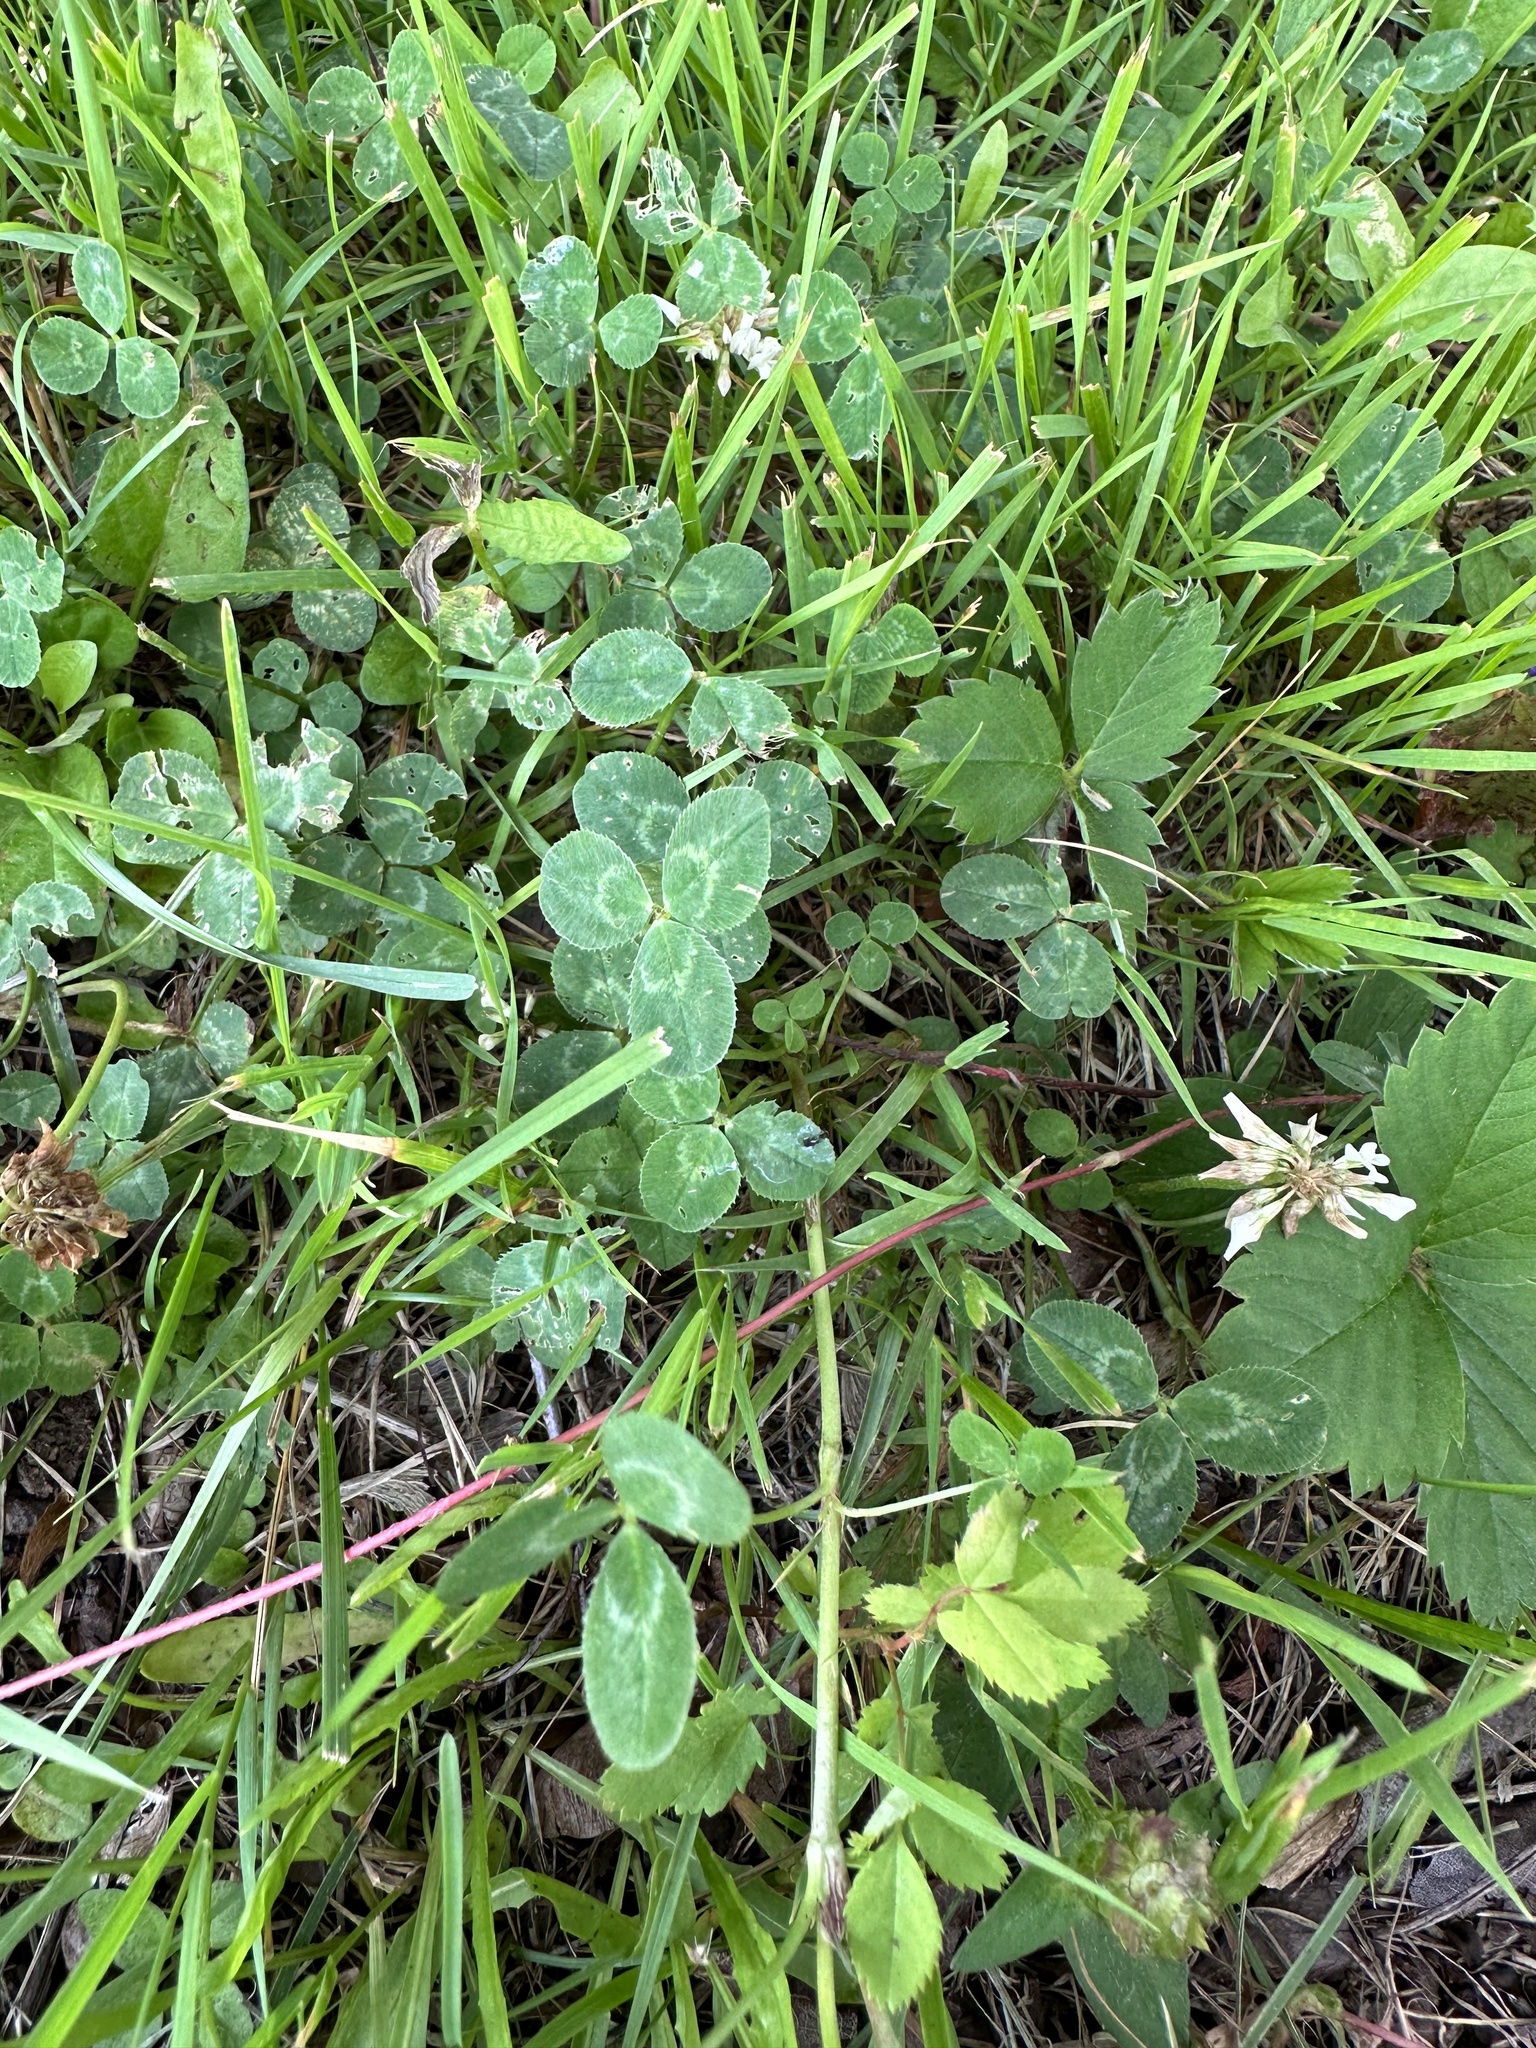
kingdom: Plantae
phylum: Tracheophyta
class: Magnoliopsida
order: Fabales
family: Fabaceae
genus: Trifolium
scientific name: Trifolium repens
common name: White clover
